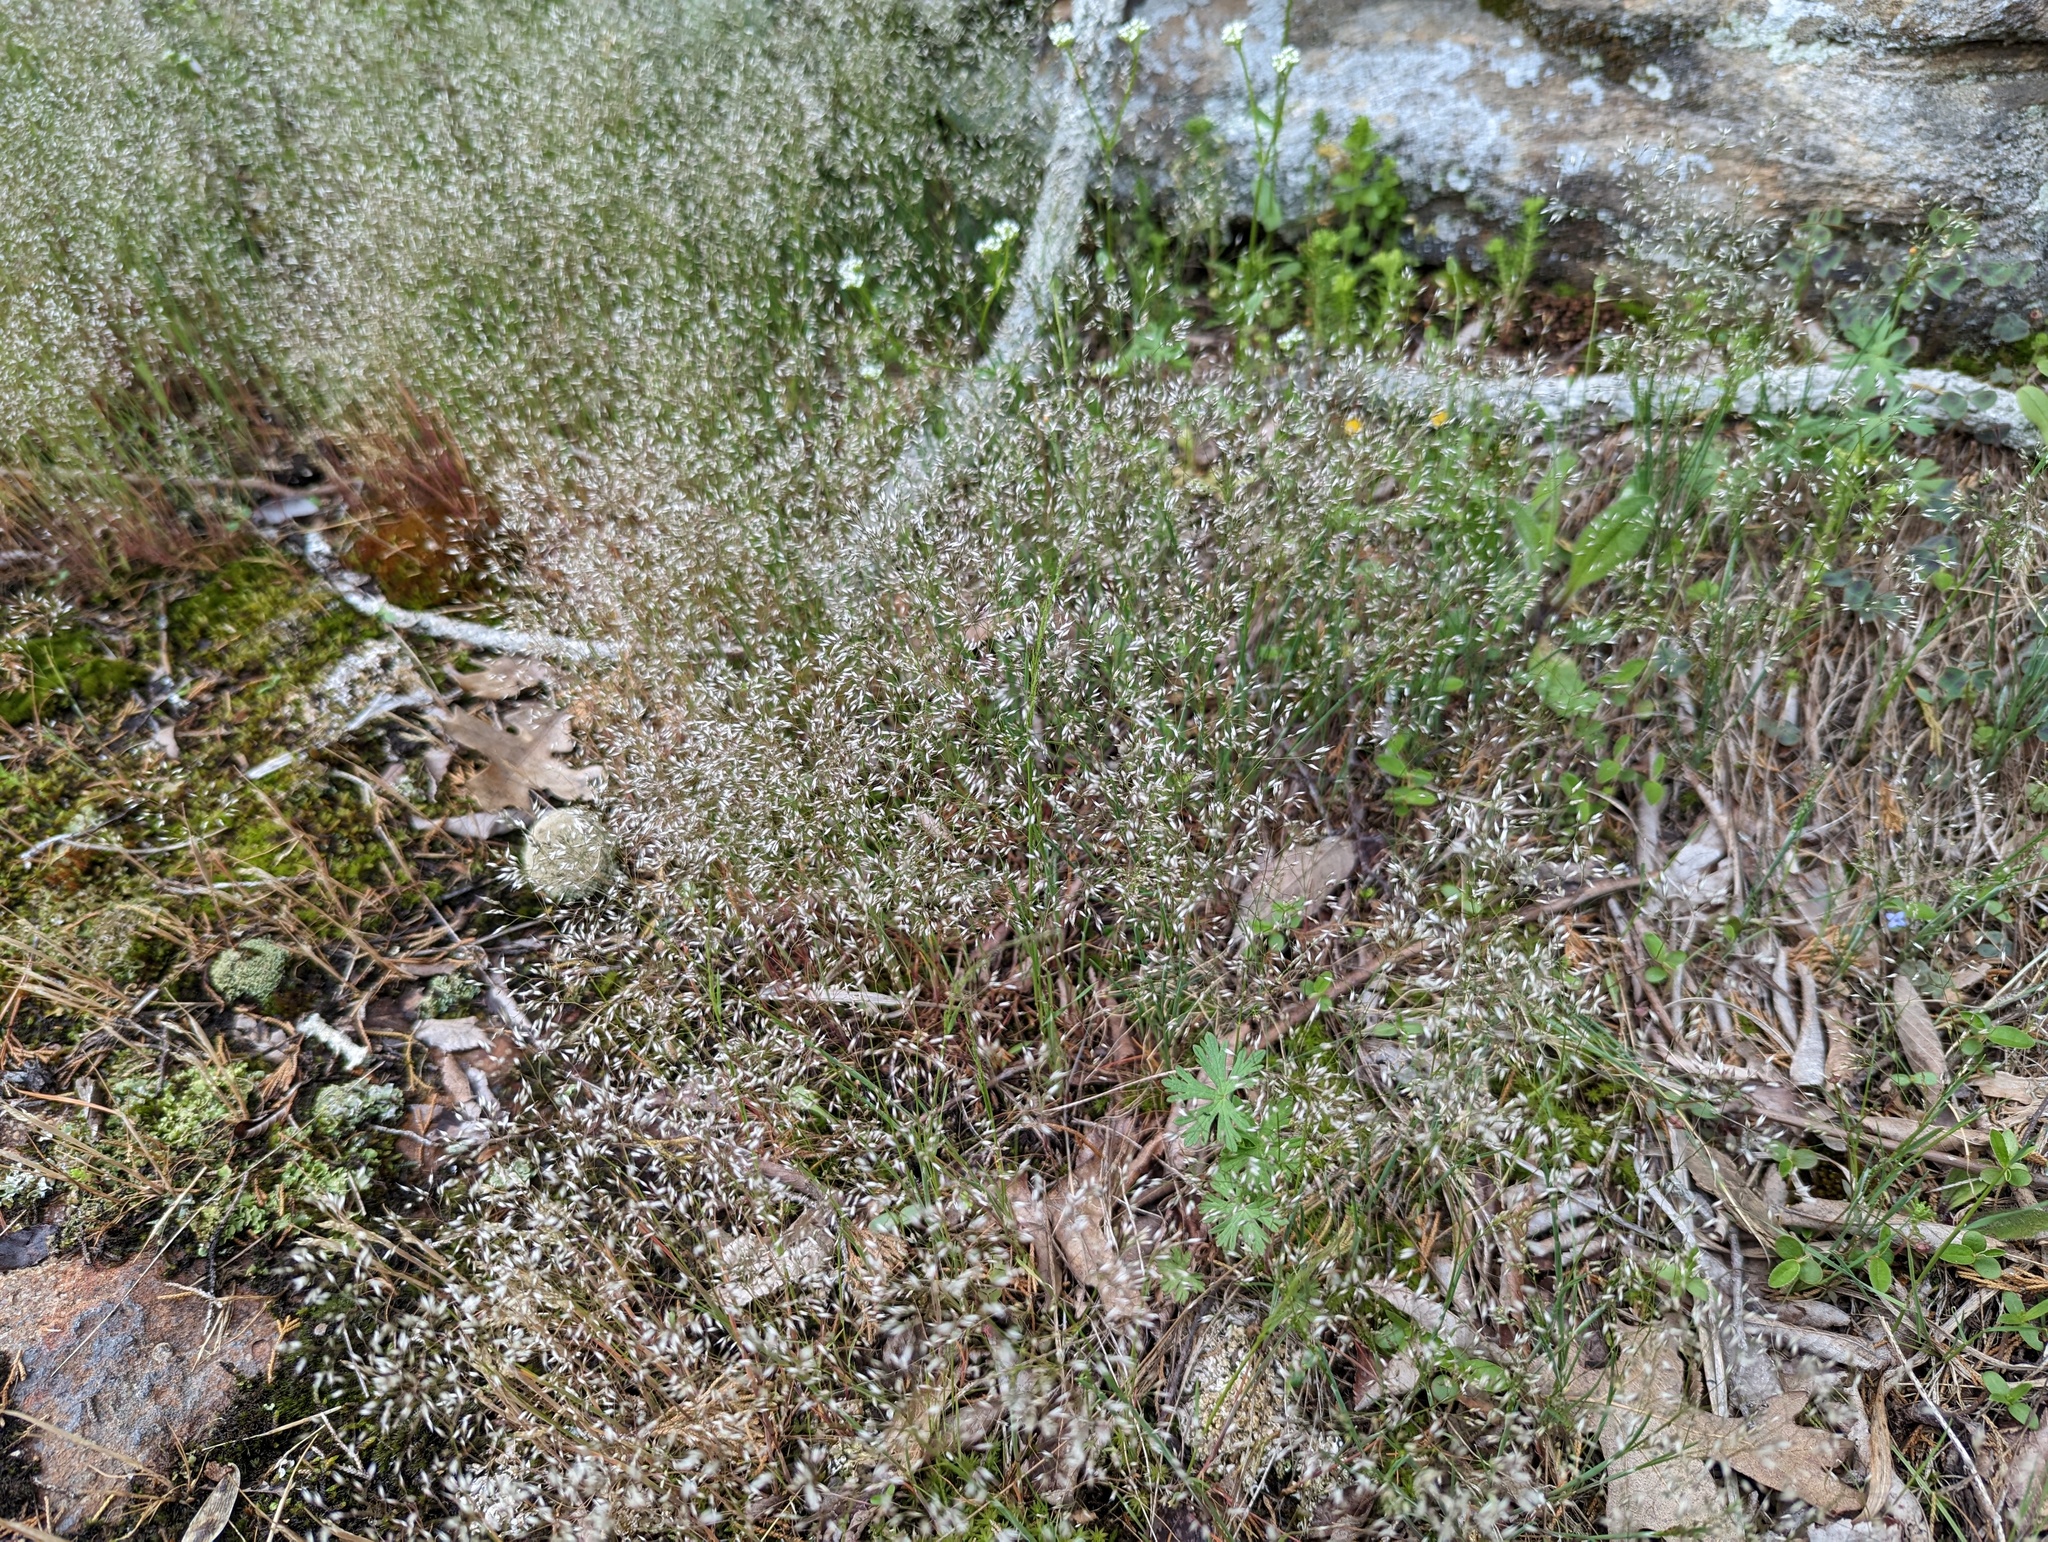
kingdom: Plantae
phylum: Tracheophyta
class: Liliopsida
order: Poales
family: Poaceae
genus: Aira
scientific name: Aira caryophyllea
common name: Silver hairgrass
